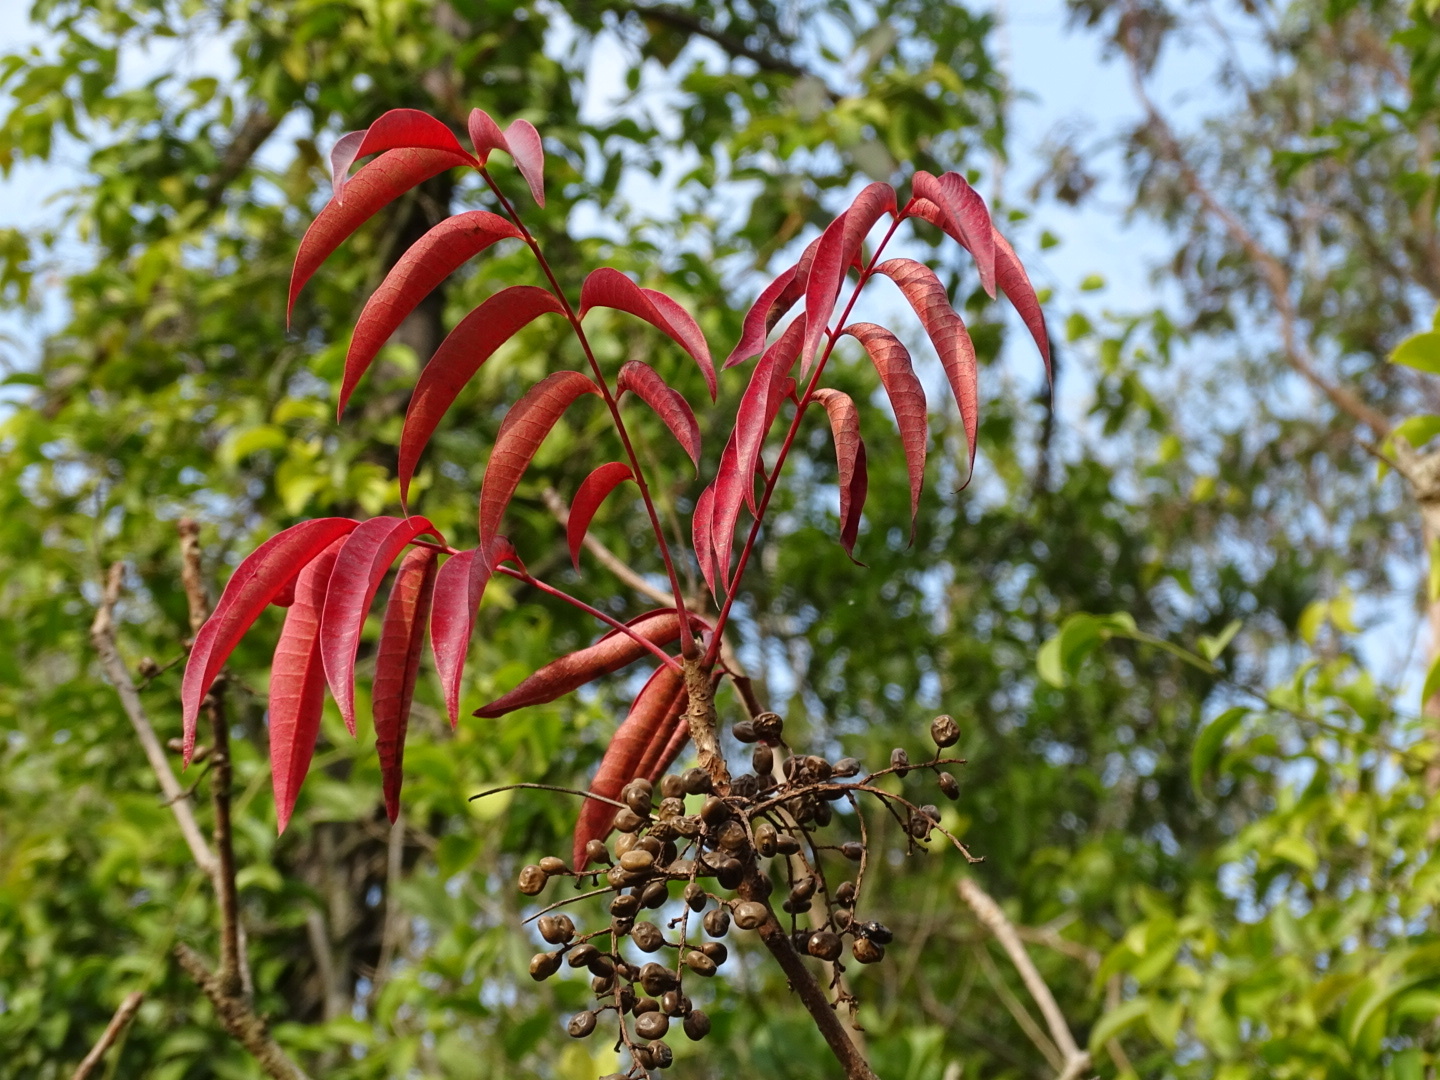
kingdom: Plantae
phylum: Tracheophyta
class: Magnoliopsida
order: Sapindales
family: Anacardiaceae
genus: Toxicodendron
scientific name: Toxicodendron succedaneum
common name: Wax tree
